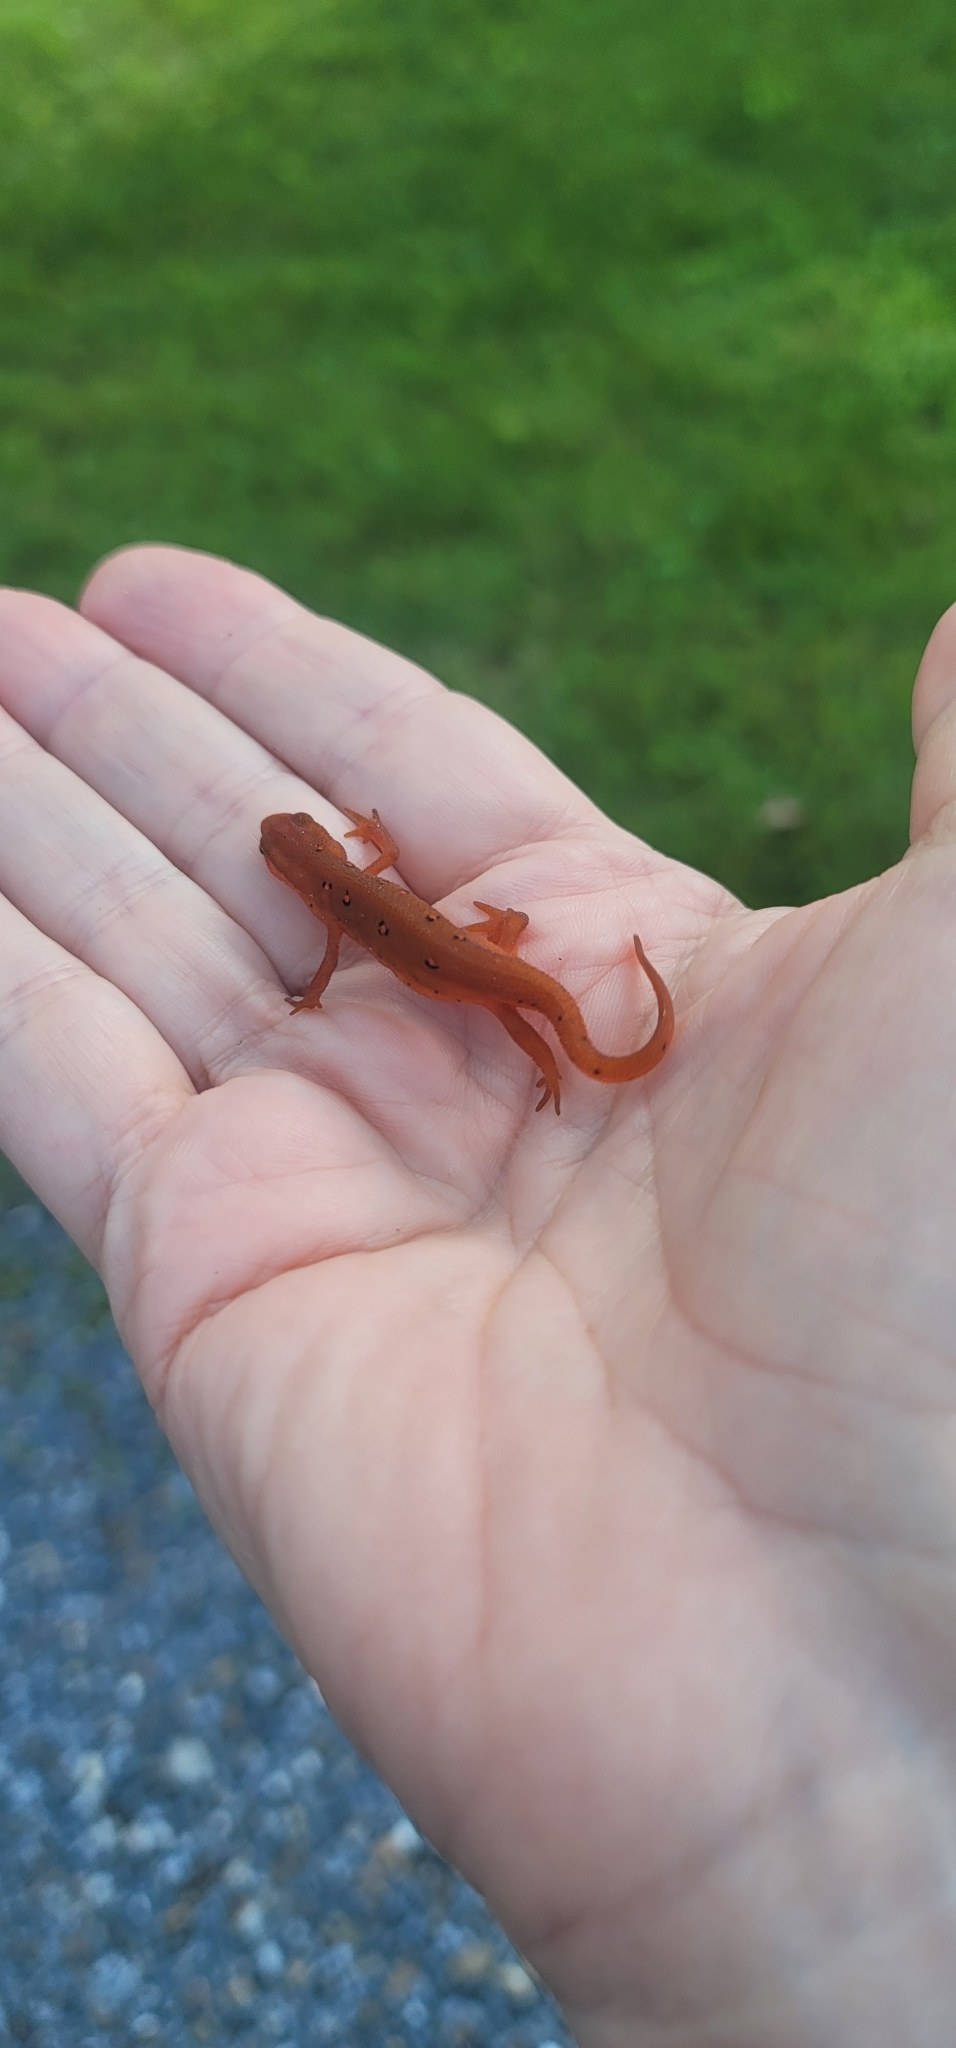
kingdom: Animalia
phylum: Chordata
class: Amphibia
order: Caudata
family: Salamandridae
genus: Notophthalmus
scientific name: Notophthalmus viridescens
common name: Eastern newt
